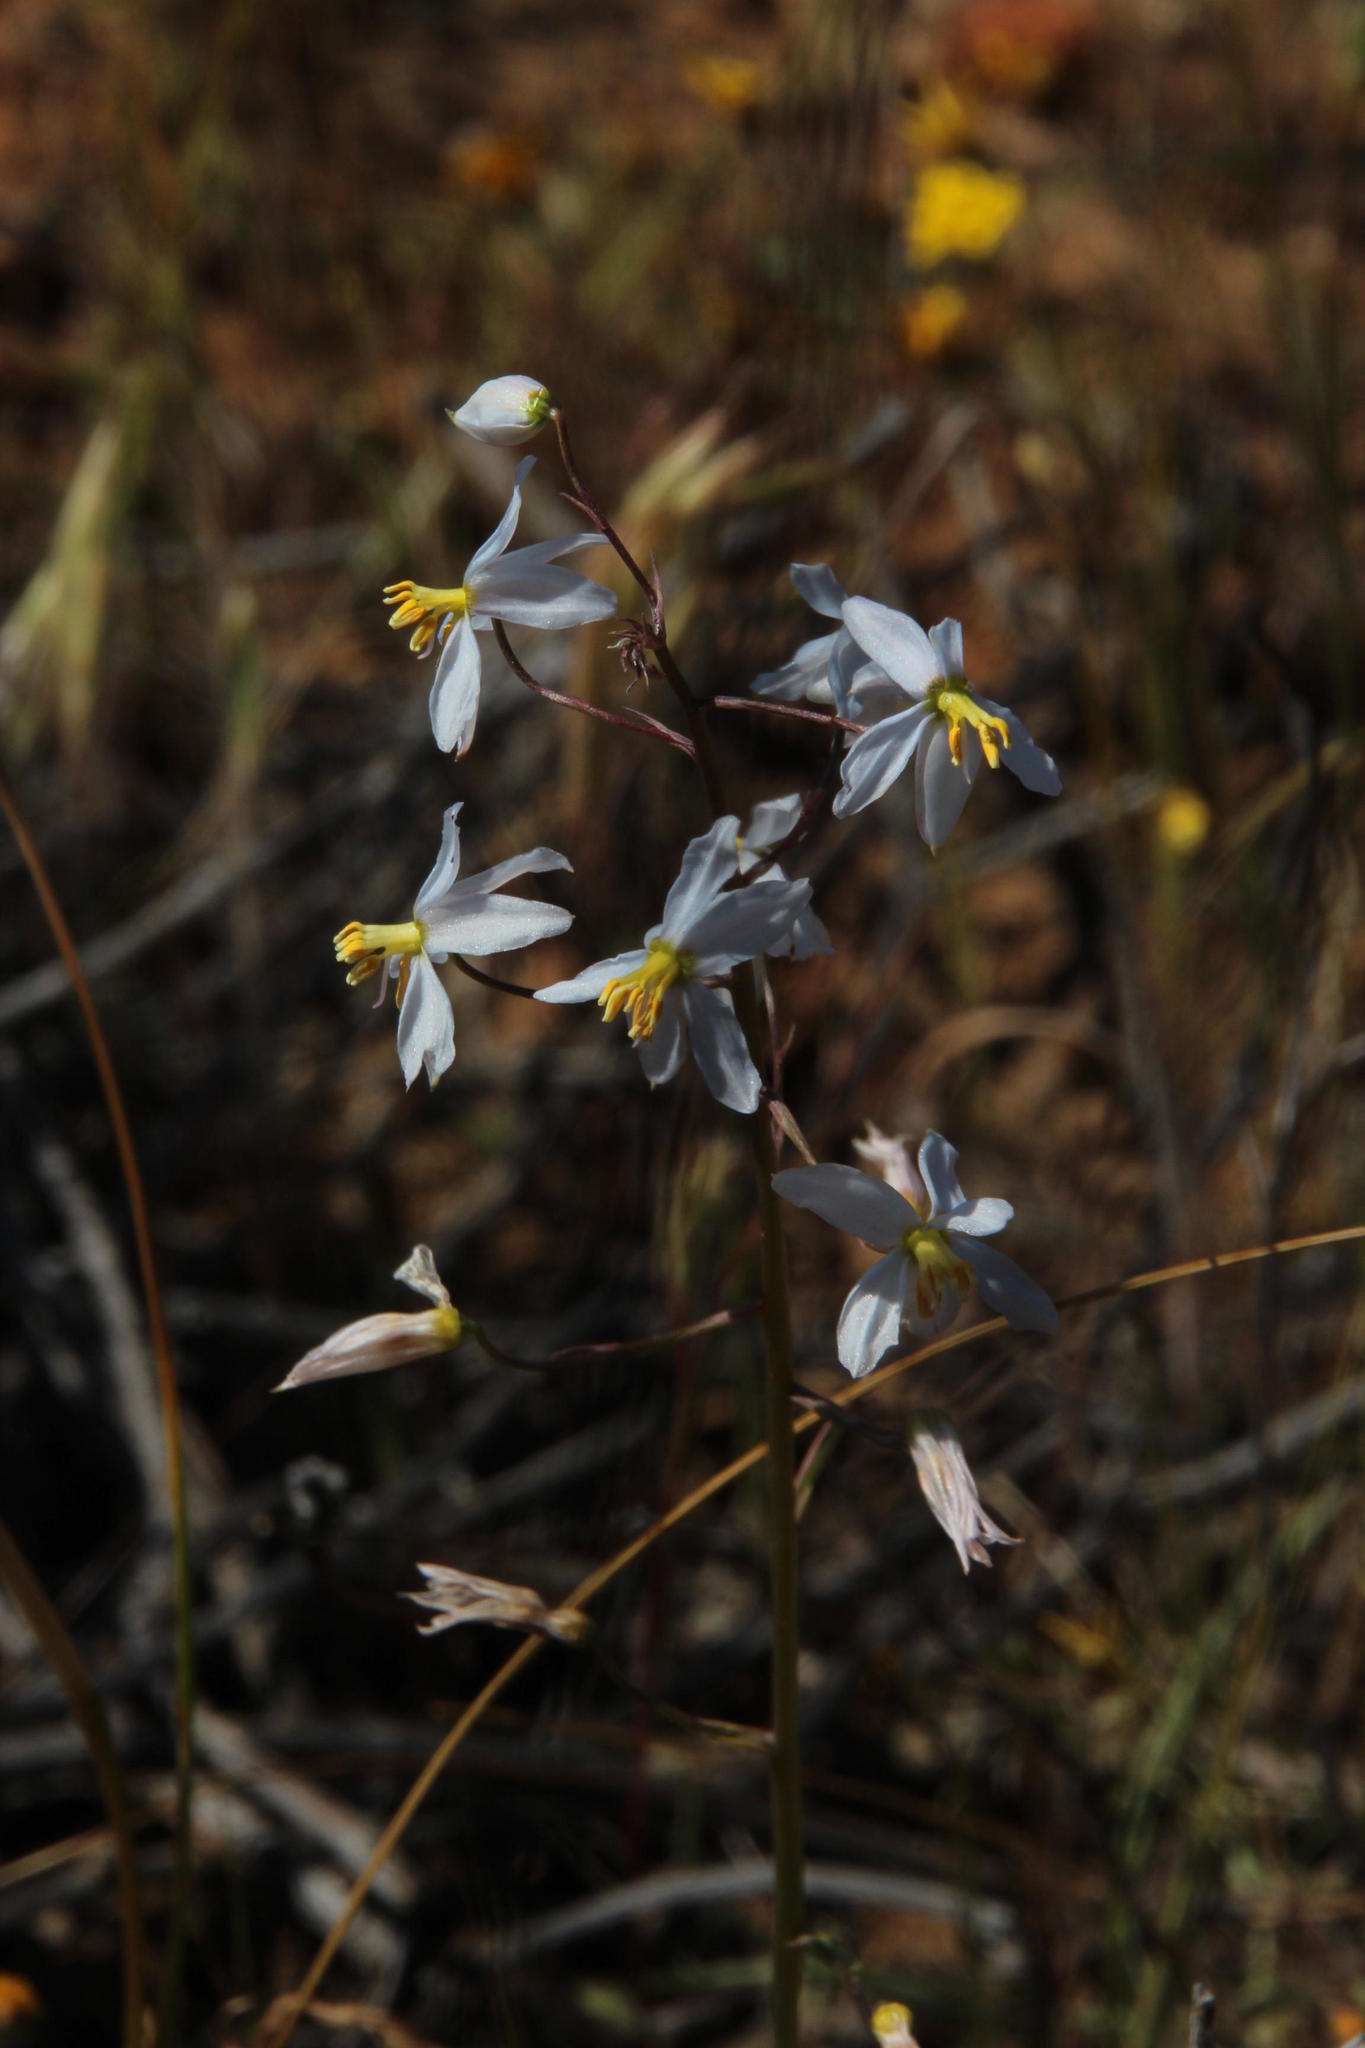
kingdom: Plantae
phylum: Tracheophyta
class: Liliopsida
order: Asparagales
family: Tecophilaeaceae
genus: Cyanella
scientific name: Cyanella orchidiformis
